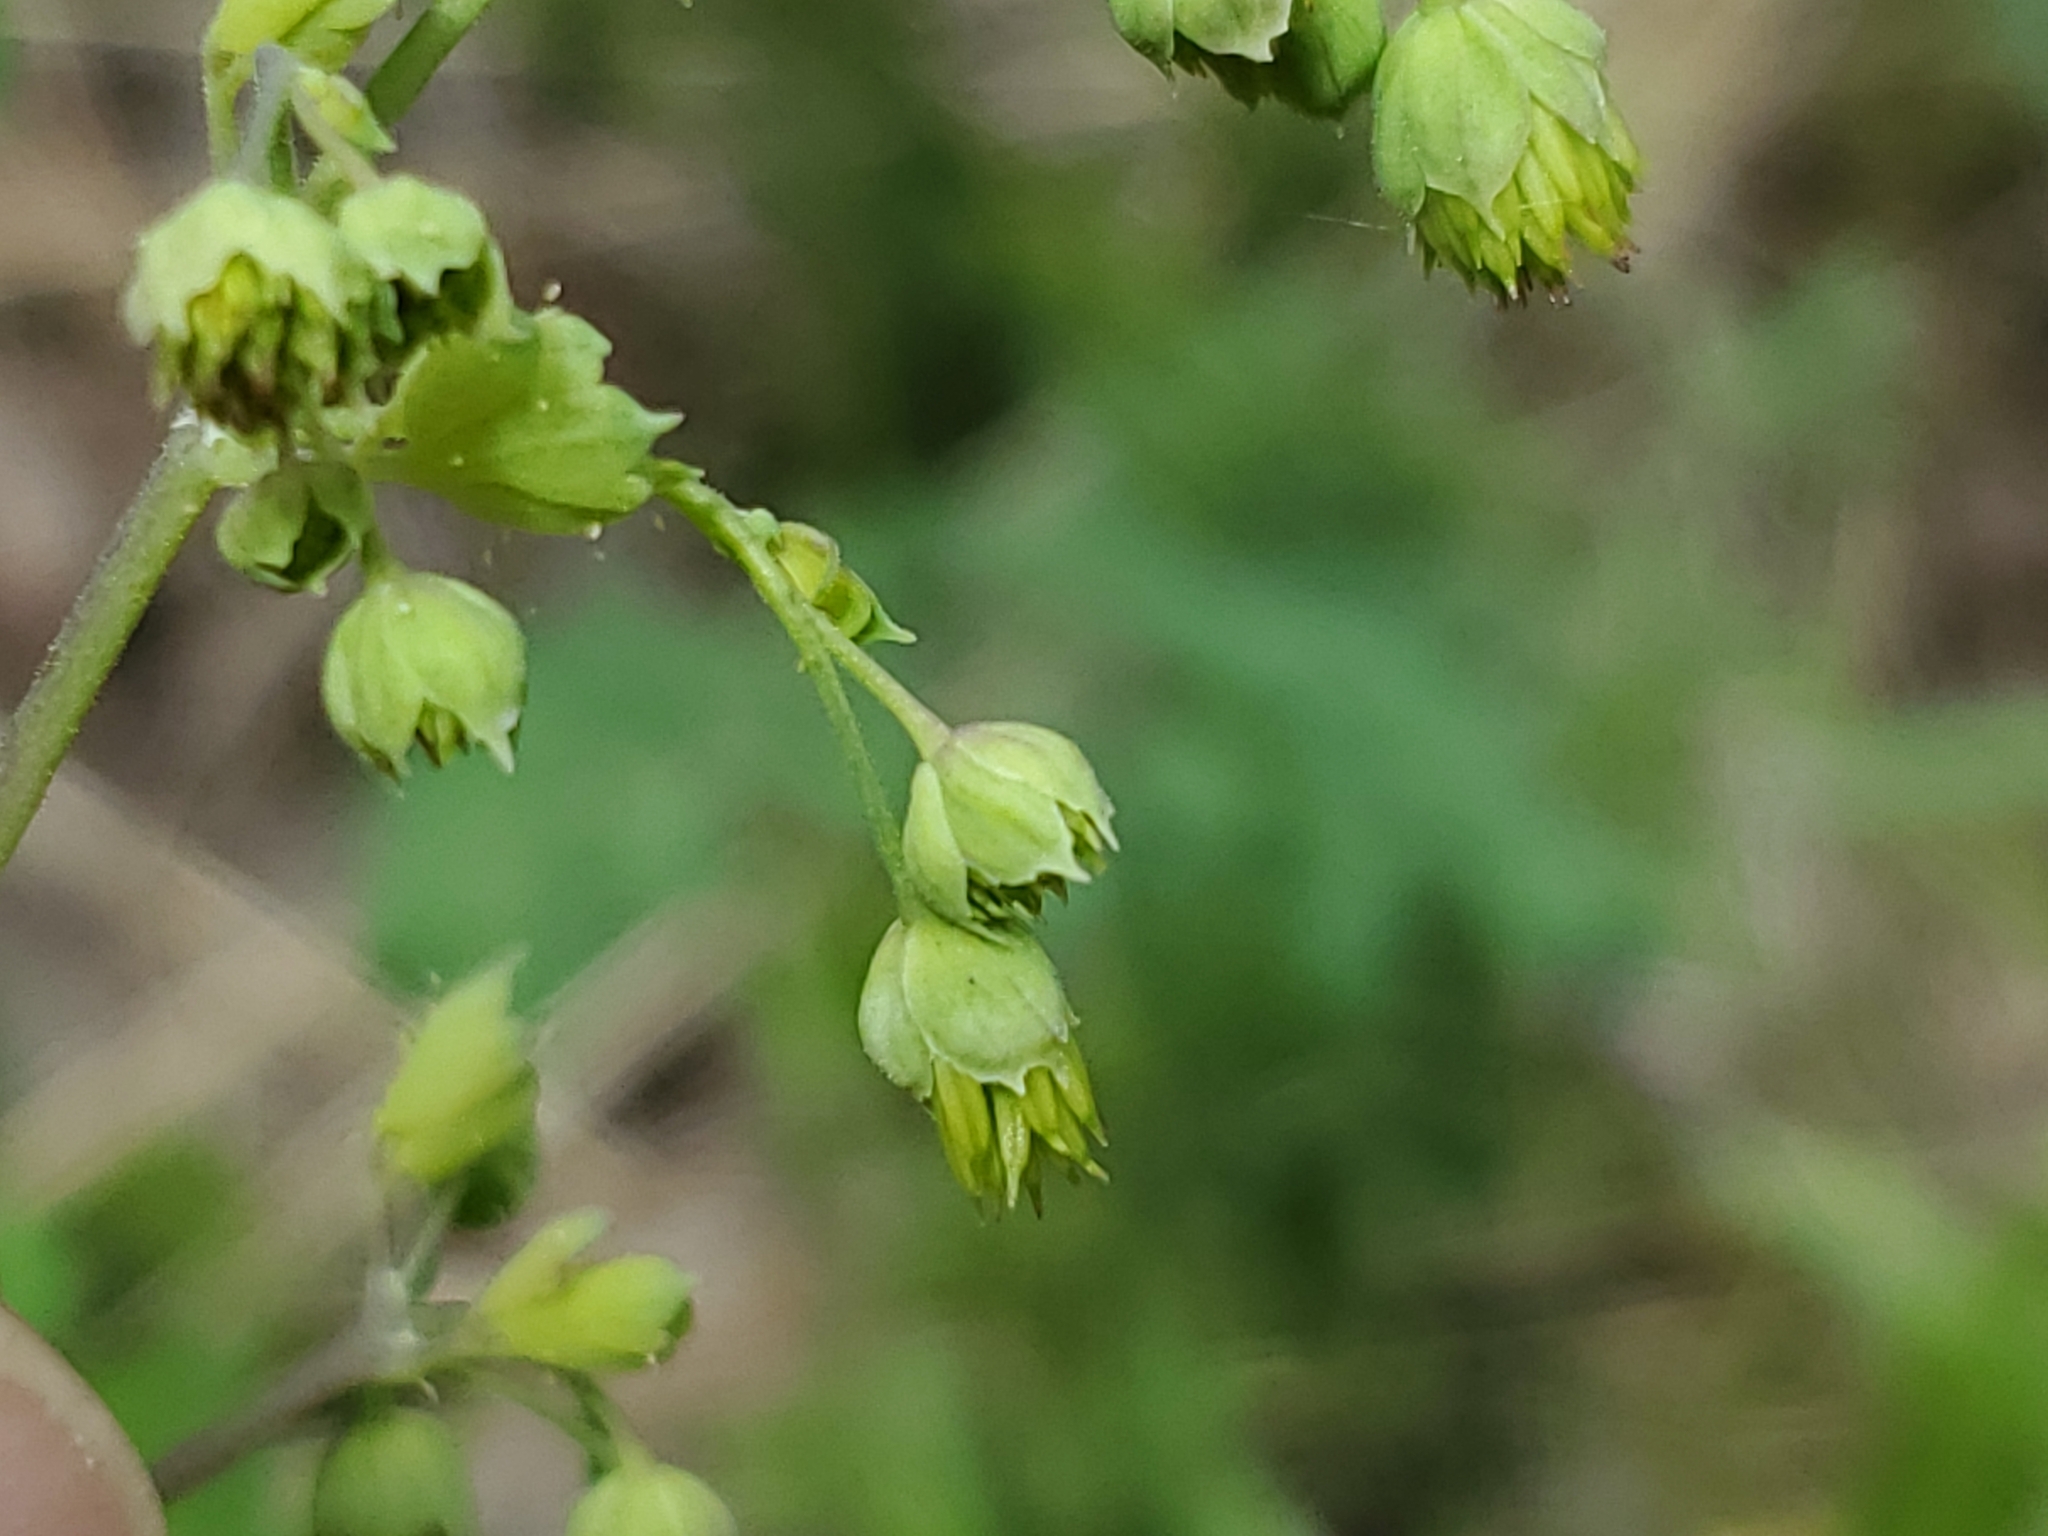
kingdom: Plantae
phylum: Tracheophyta
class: Magnoliopsida
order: Ranunculales
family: Ranunculaceae
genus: Thalictrum
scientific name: Thalictrum fendleri
